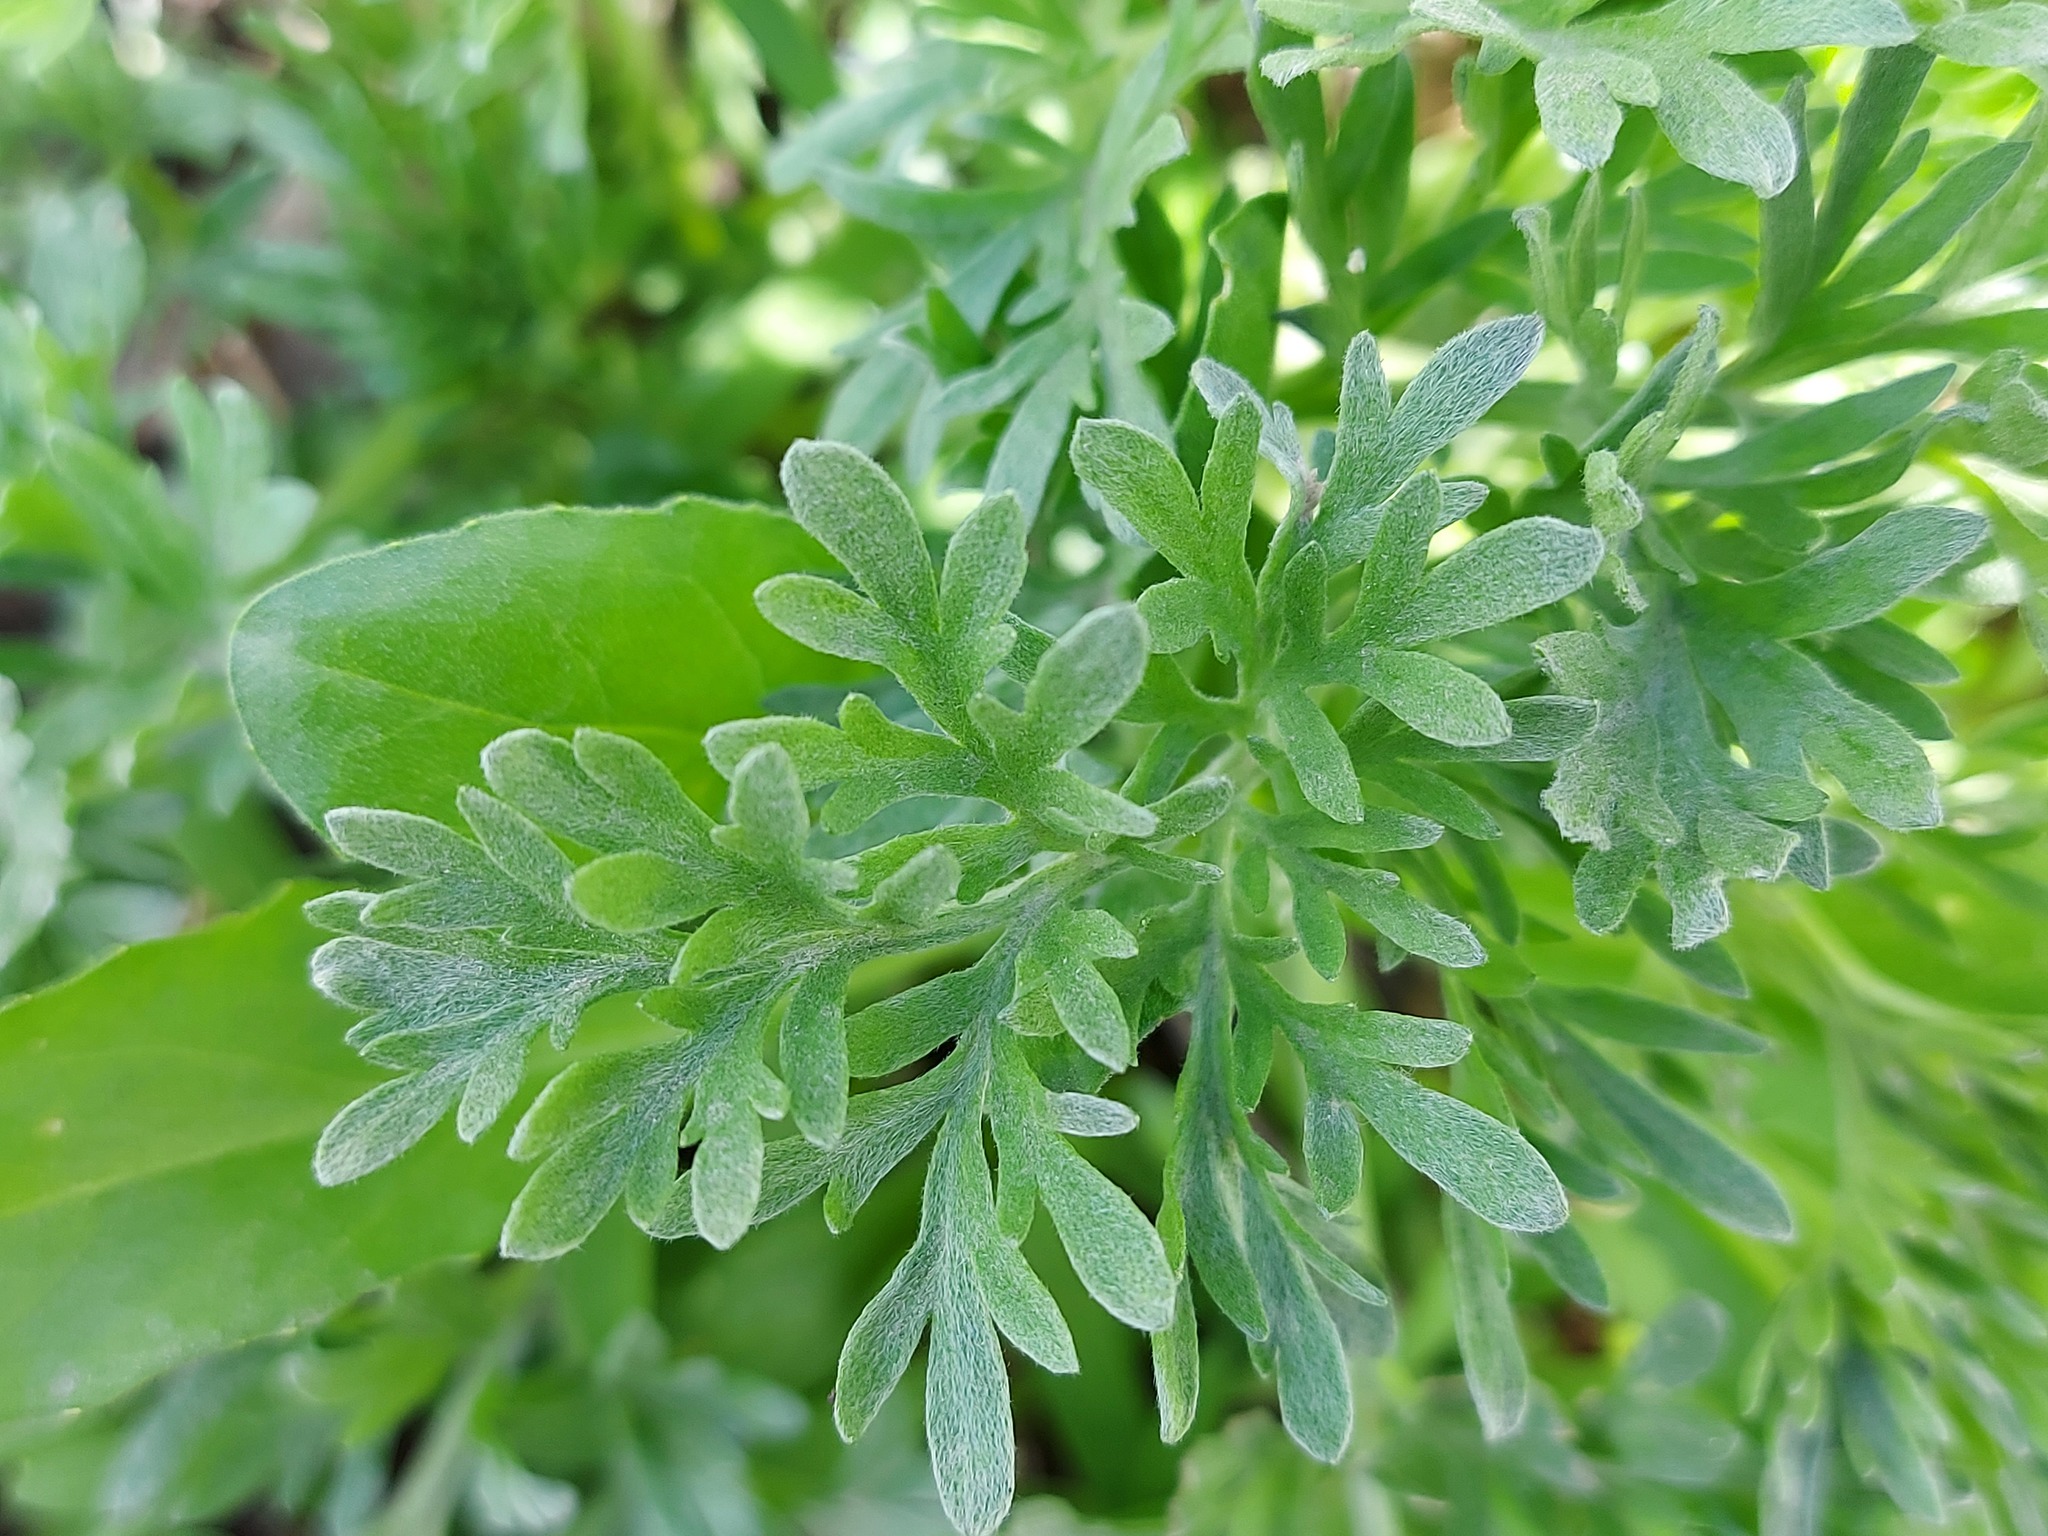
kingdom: Plantae
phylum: Tracheophyta
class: Magnoliopsida
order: Asterales
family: Asteraceae
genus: Artemisia
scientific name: Artemisia absinthium
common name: Wormwood
